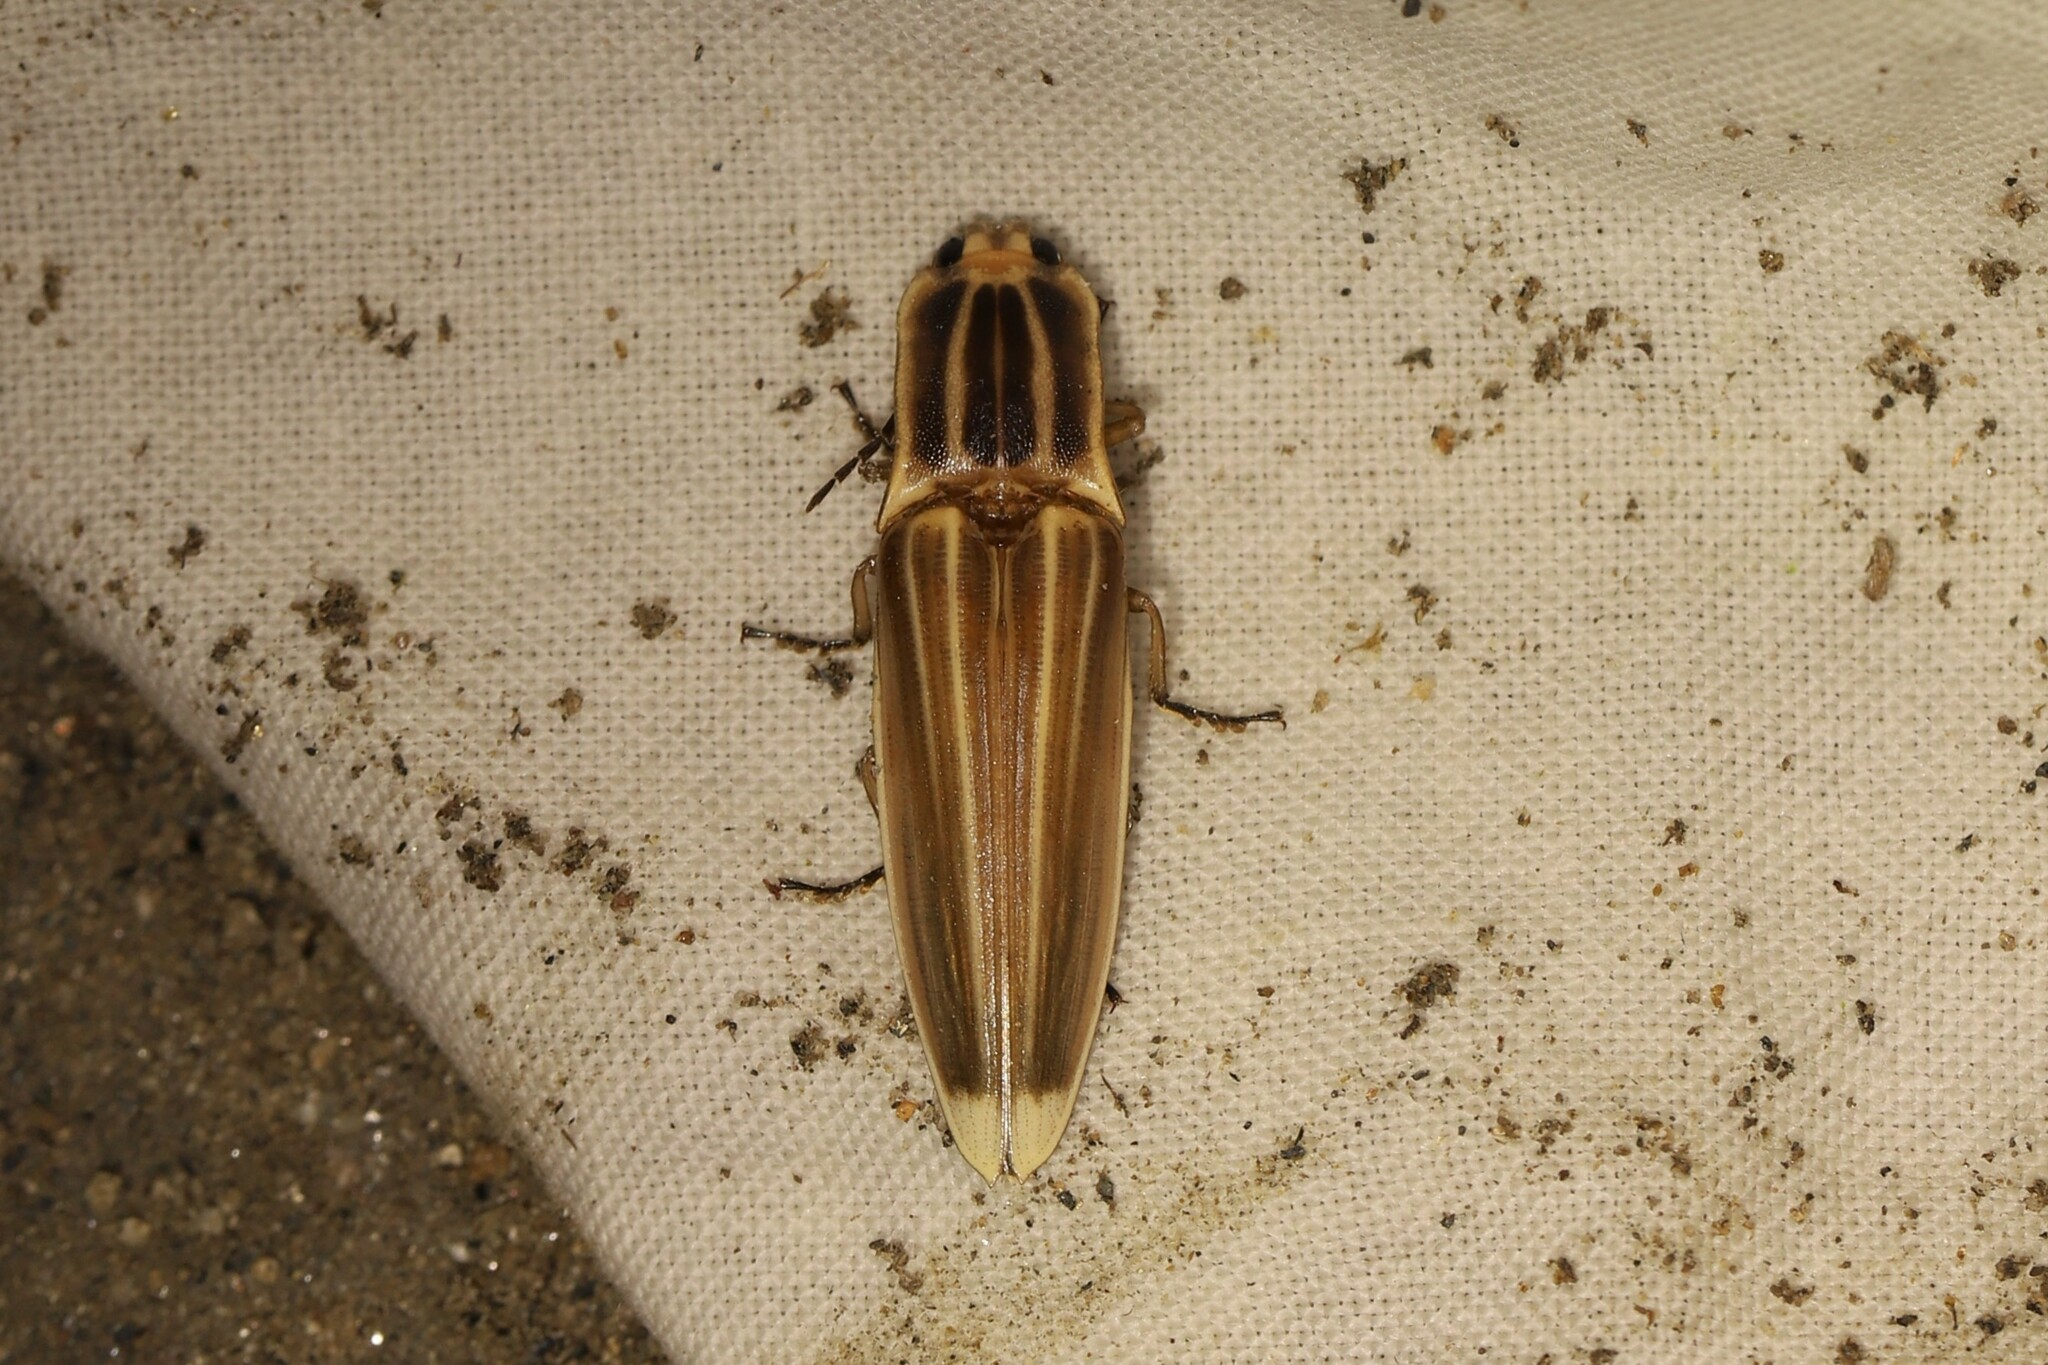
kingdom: Animalia
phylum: Arthropoda
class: Insecta
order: Coleoptera
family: Elateridae
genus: Semiotus
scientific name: Semiotus ligneus
